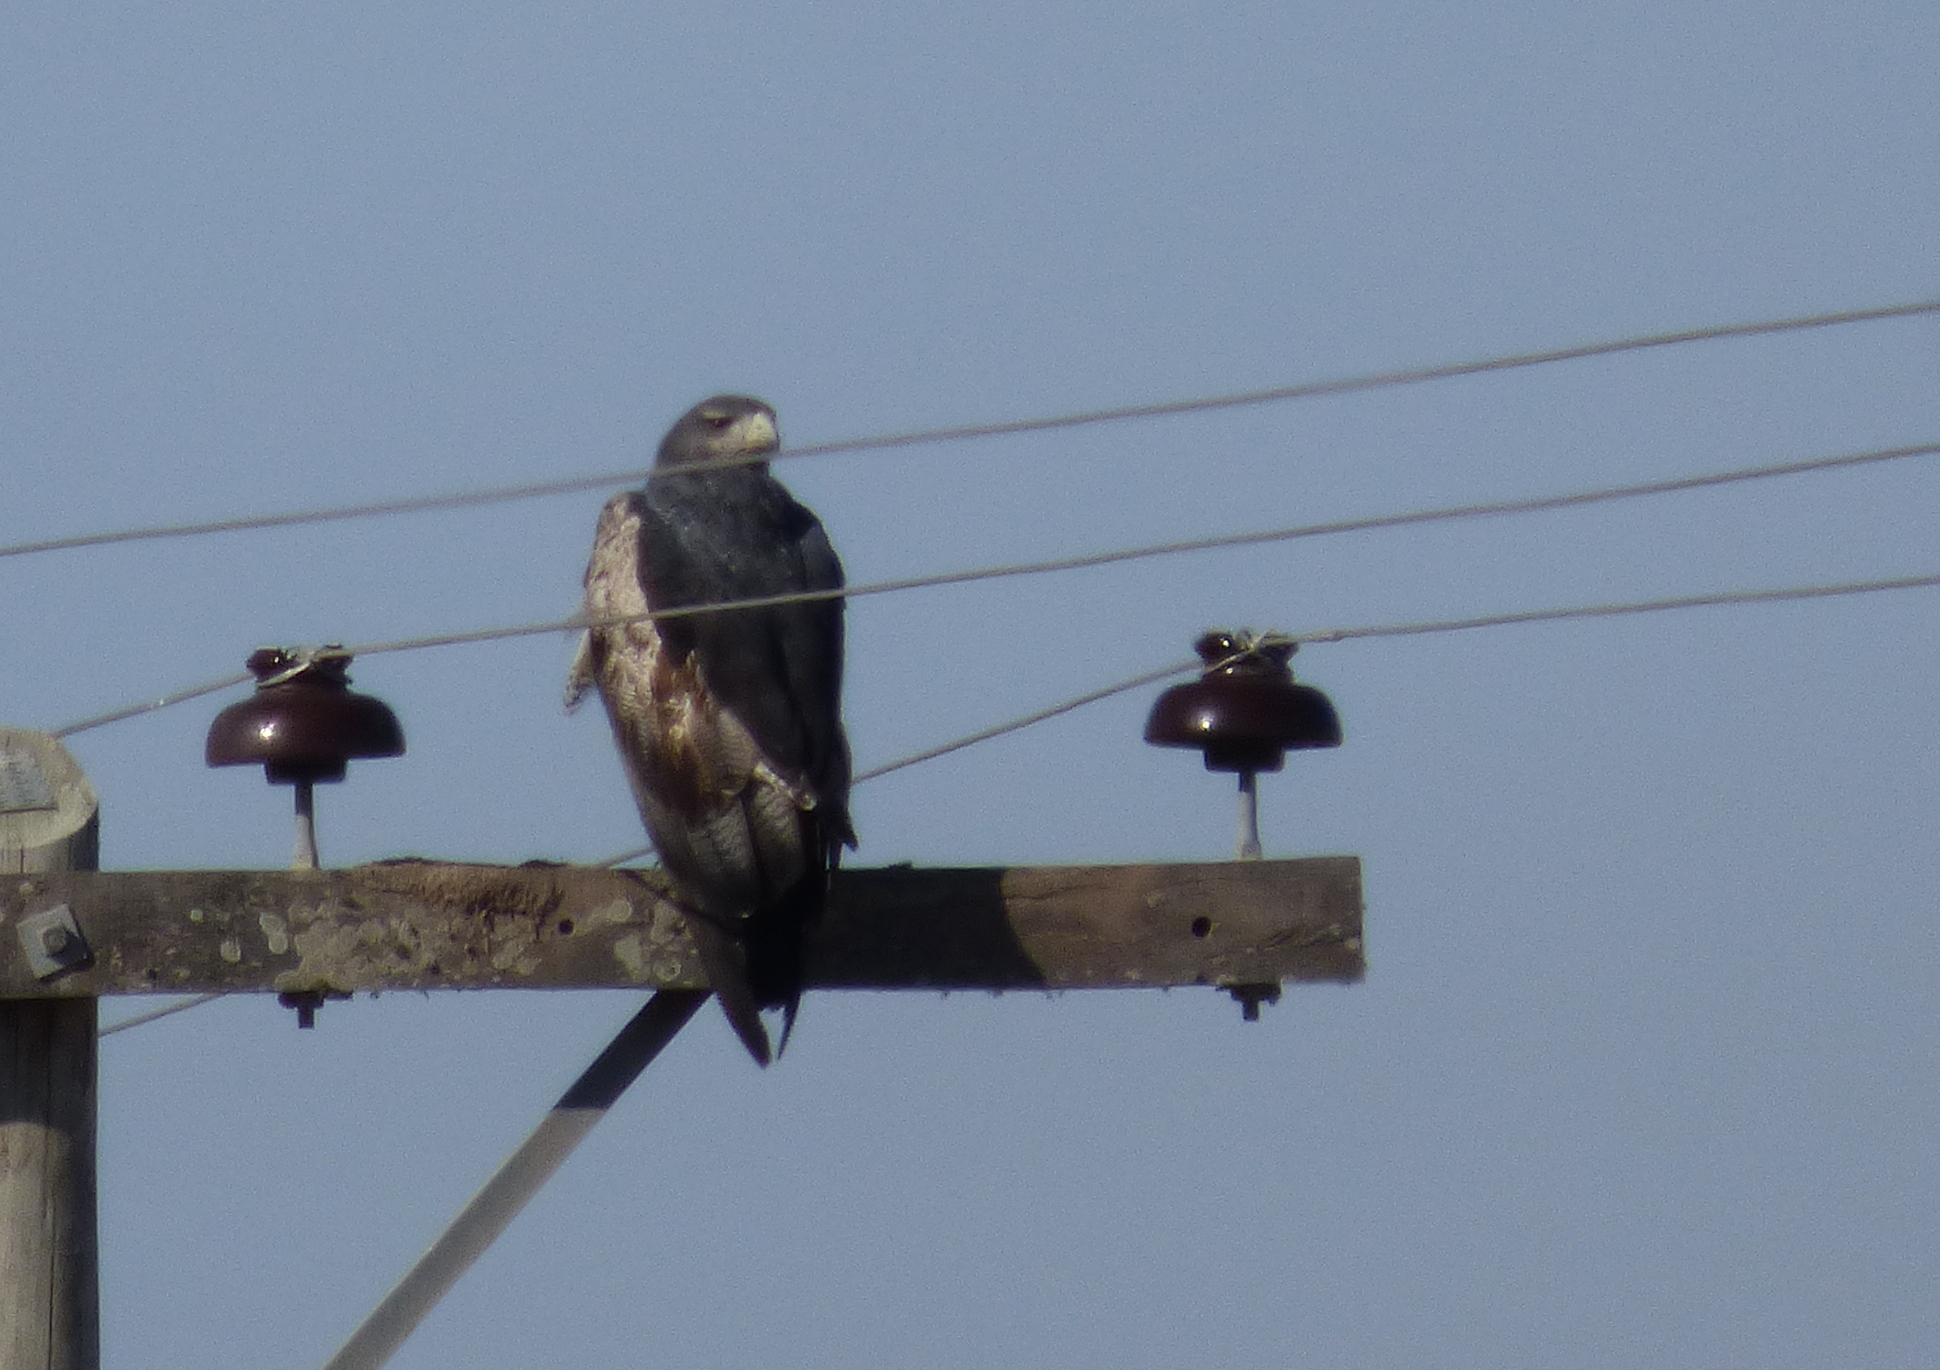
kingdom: Animalia
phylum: Chordata
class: Aves
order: Accipitriformes
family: Accipitridae
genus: Geranoaetus
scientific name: Geranoaetus melanoleucus
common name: Black-chested buzzard-eagle
